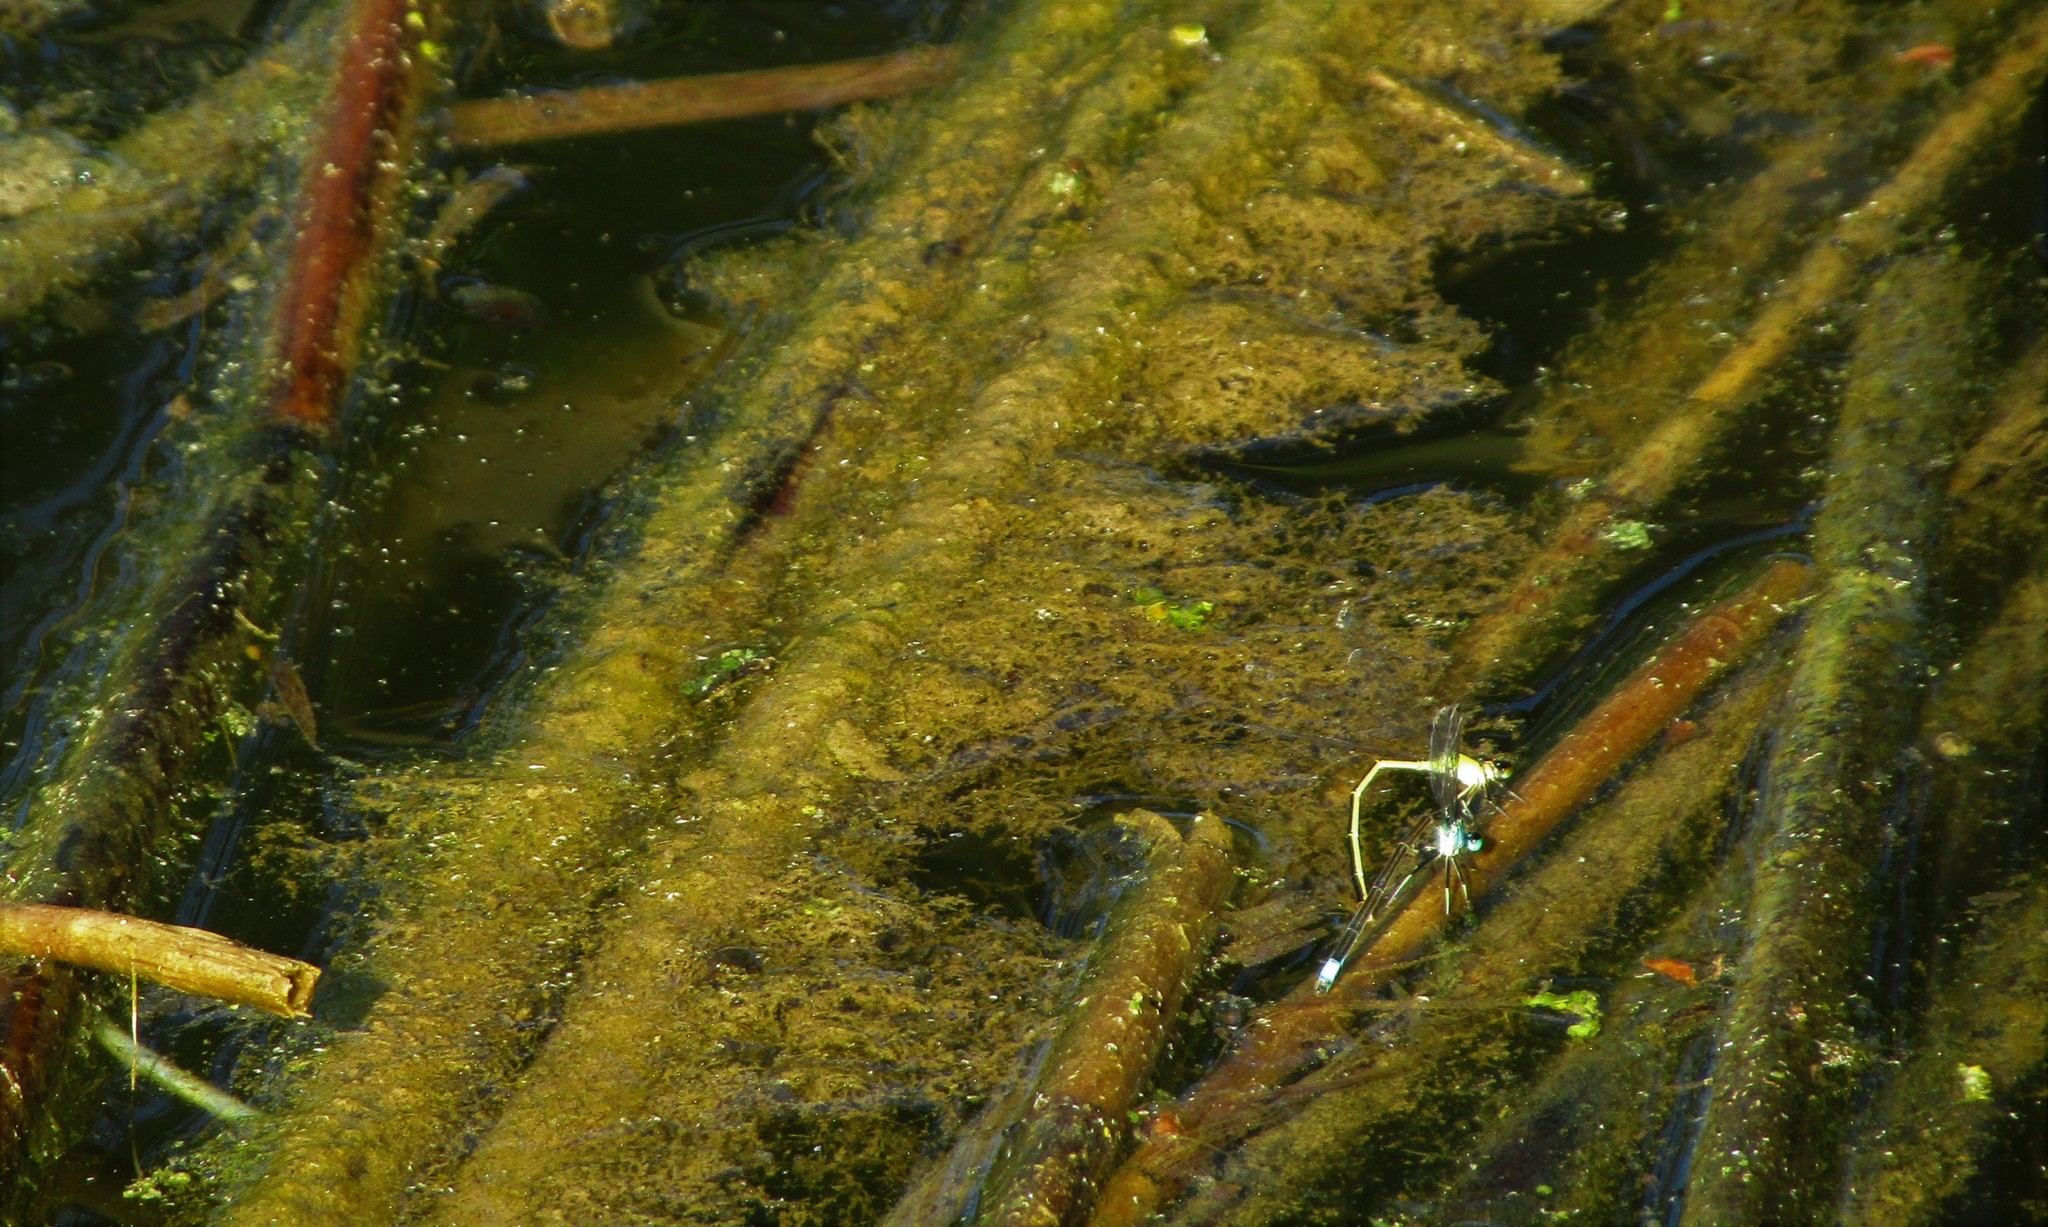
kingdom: Animalia
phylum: Arthropoda
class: Insecta
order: Odonata
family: Coenagrionidae
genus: Ischnura
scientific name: Ischnura elegans
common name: Blue-tailed damselfly
